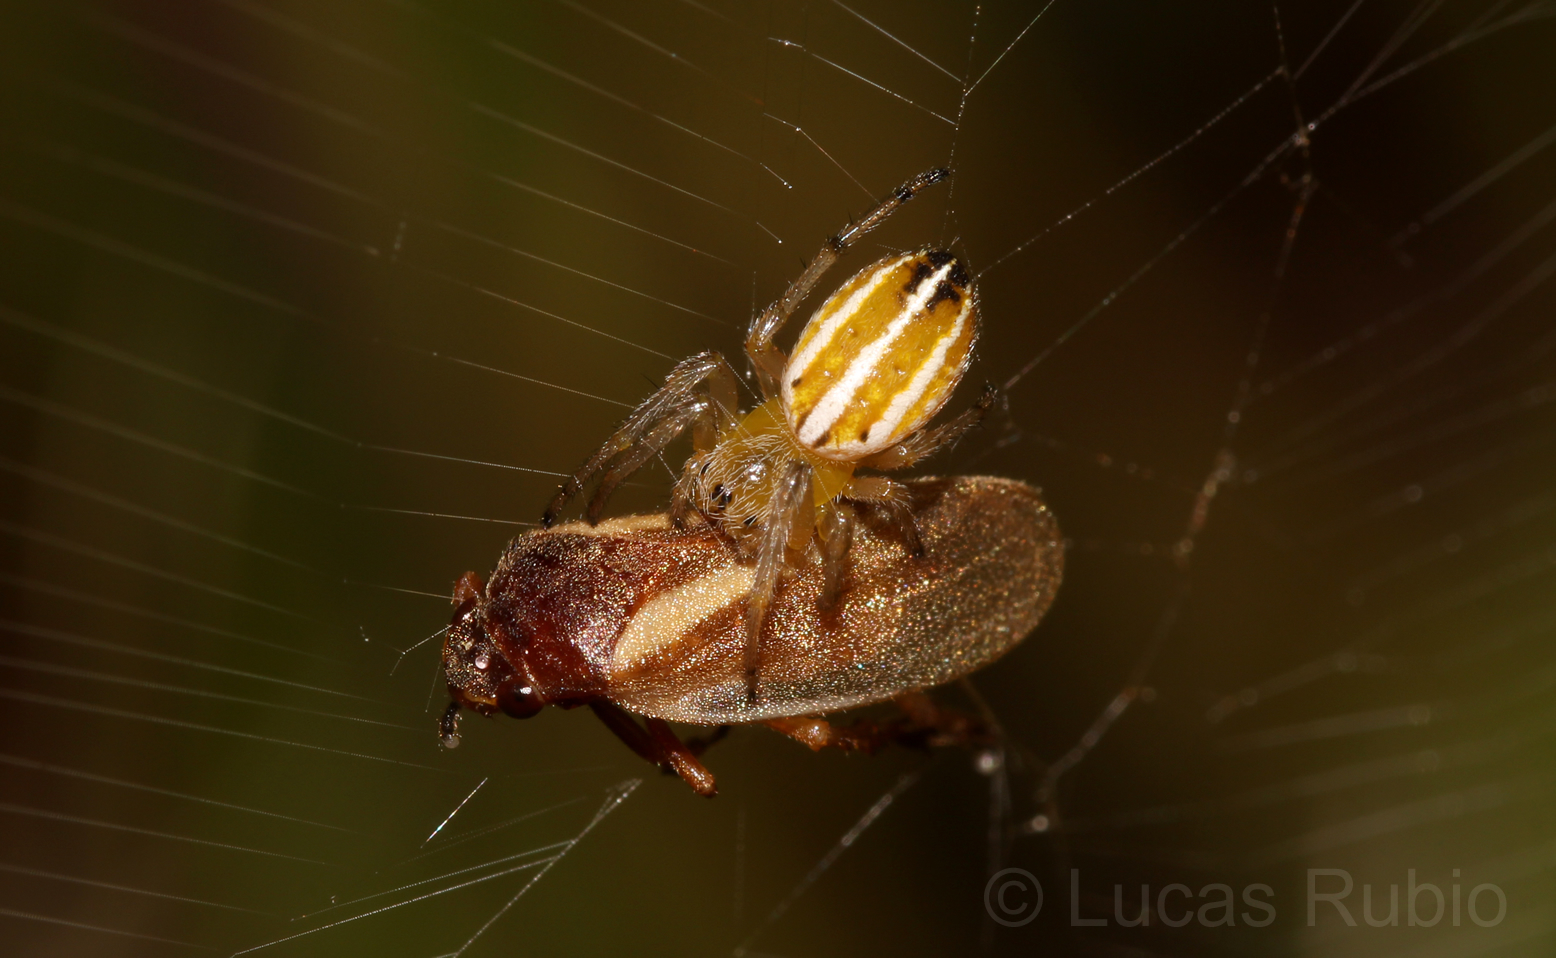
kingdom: Animalia
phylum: Arthropoda
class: Arachnida
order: Araneae
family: Araneidae
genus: Alpaida
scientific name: Alpaida rubellula
